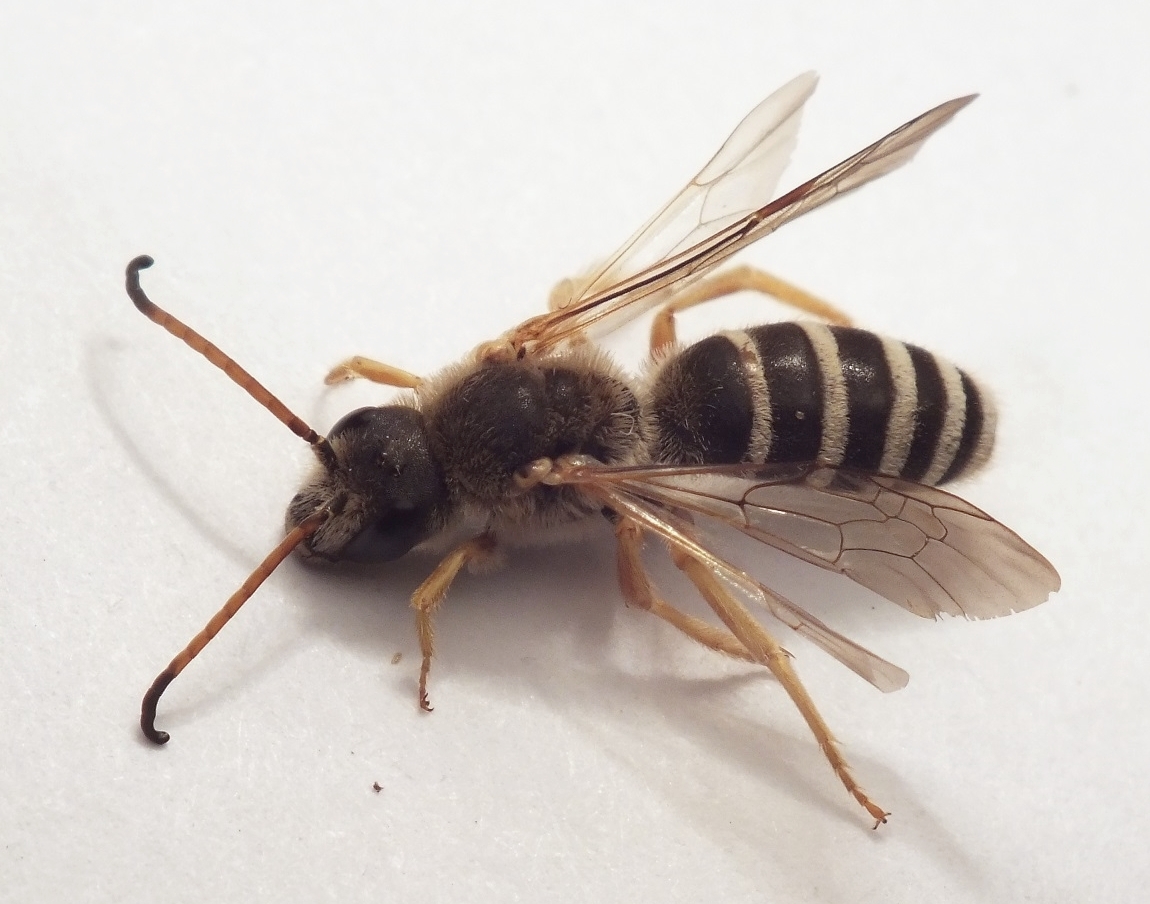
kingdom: Animalia
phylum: Arthropoda
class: Insecta
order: Hymenoptera
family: Halictidae
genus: Halictus
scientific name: Halictus sexcinctus
